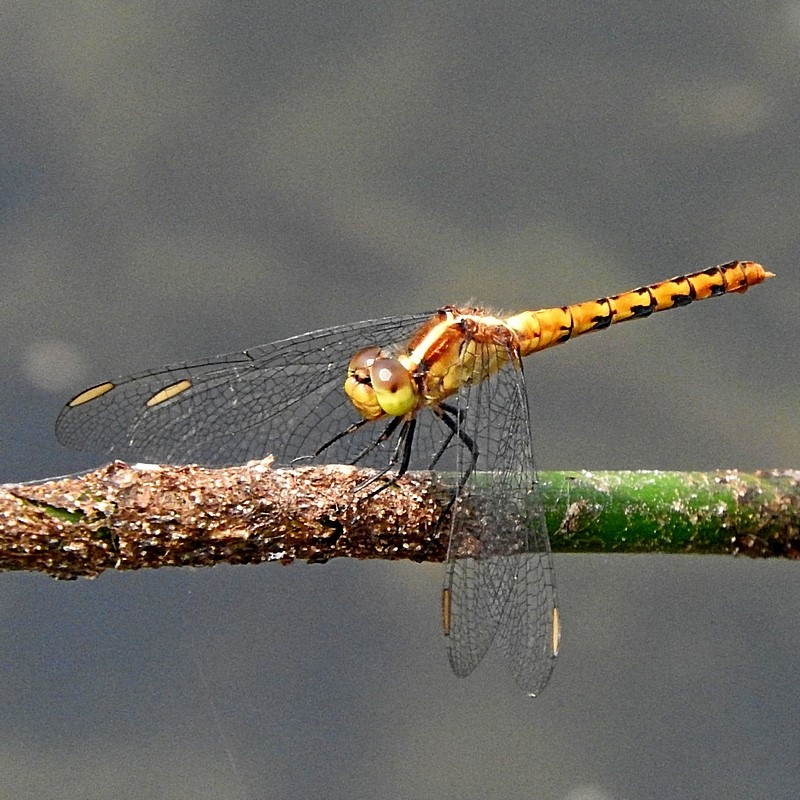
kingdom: Animalia
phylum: Arthropoda
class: Insecta
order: Odonata
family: Libellulidae
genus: Diplacodes
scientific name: Diplacodes melanopsis
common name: Black-faced percher
